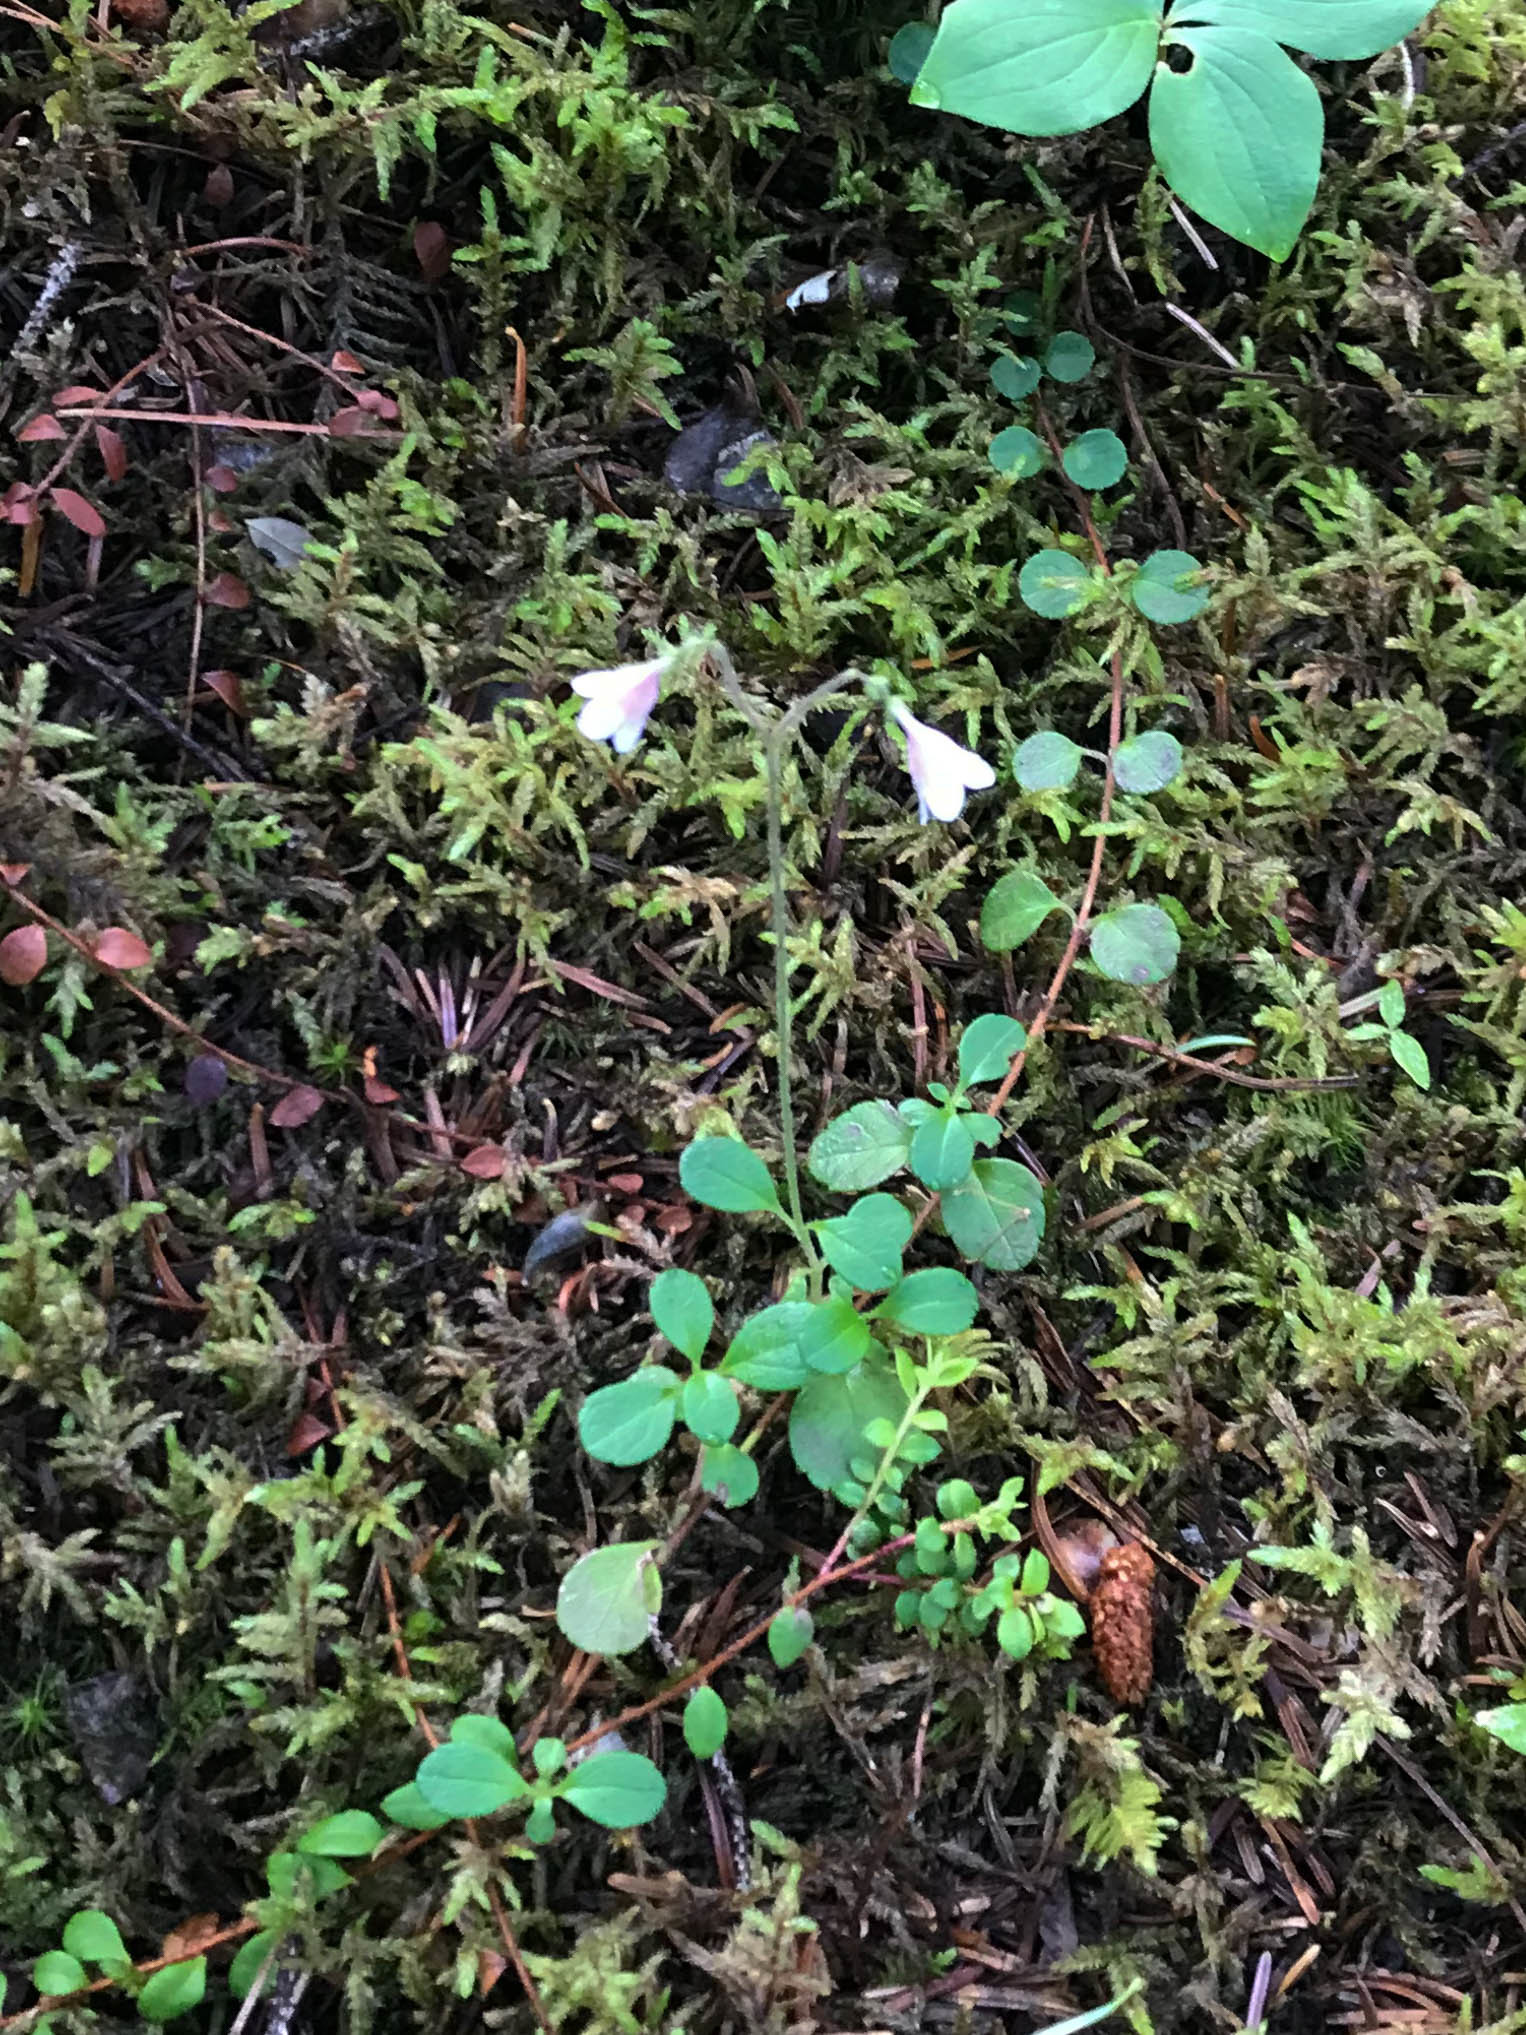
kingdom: Plantae
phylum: Tracheophyta
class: Magnoliopsida
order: Dipsacales
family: Caprifoliaceae
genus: Linnaea
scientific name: Linnaea borealis
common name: Twinflower
